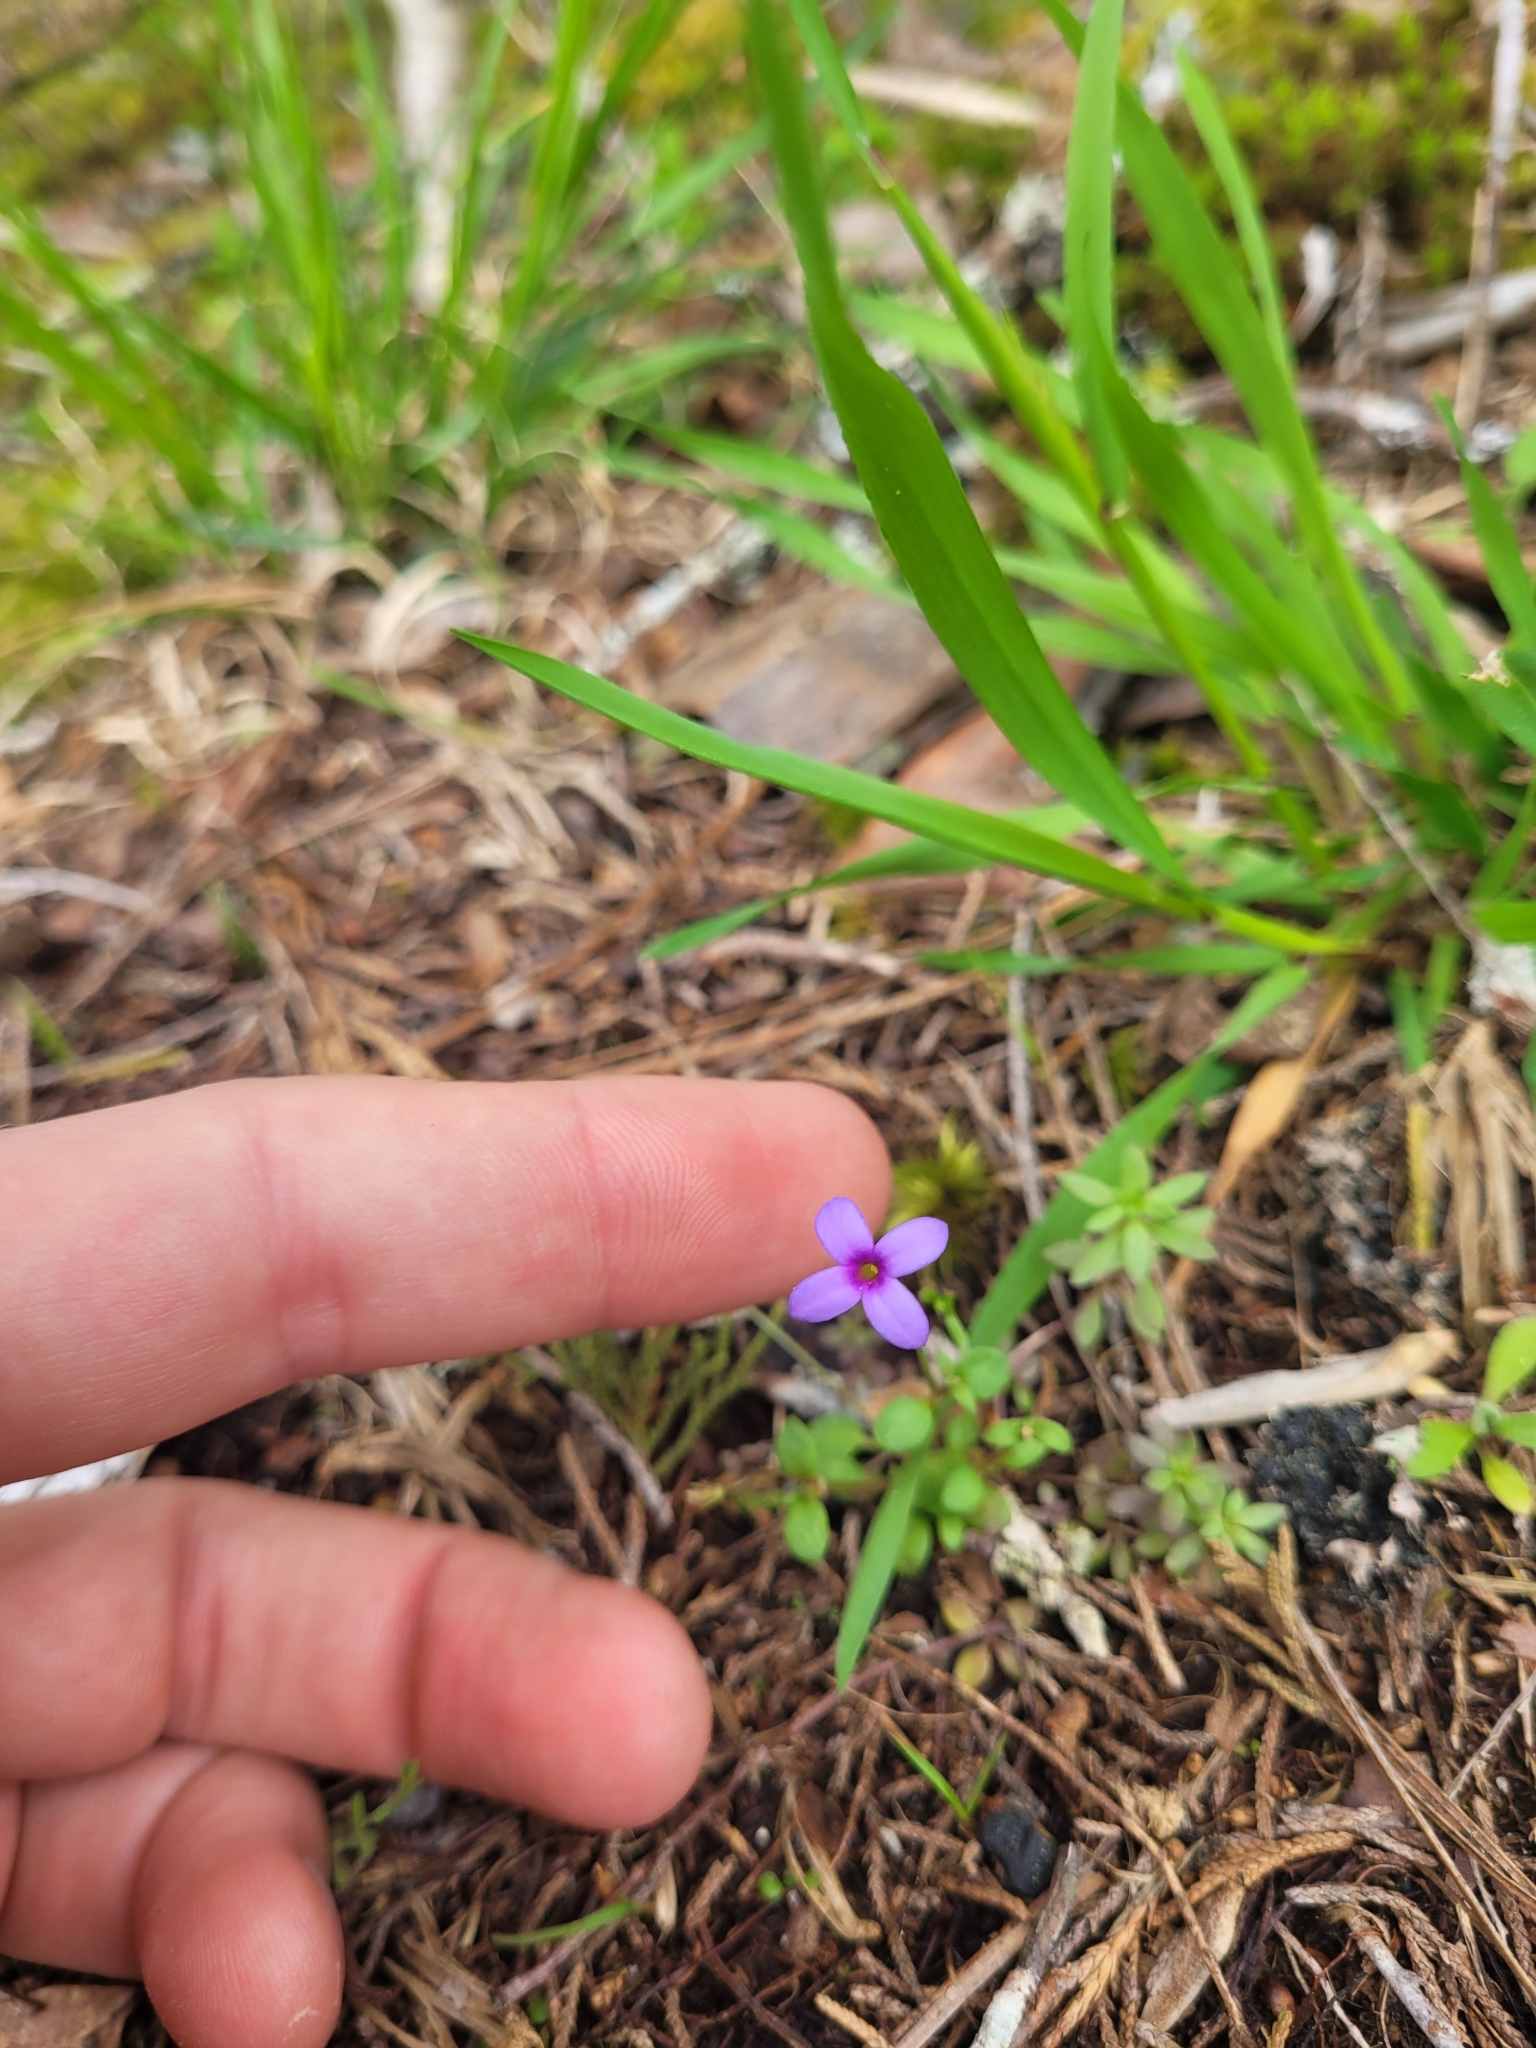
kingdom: Plantae
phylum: Tracheophyta
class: Magnoliopsida
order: Gentianales
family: Rubiaceae
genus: Houstonia
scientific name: Houstonia pusilla
